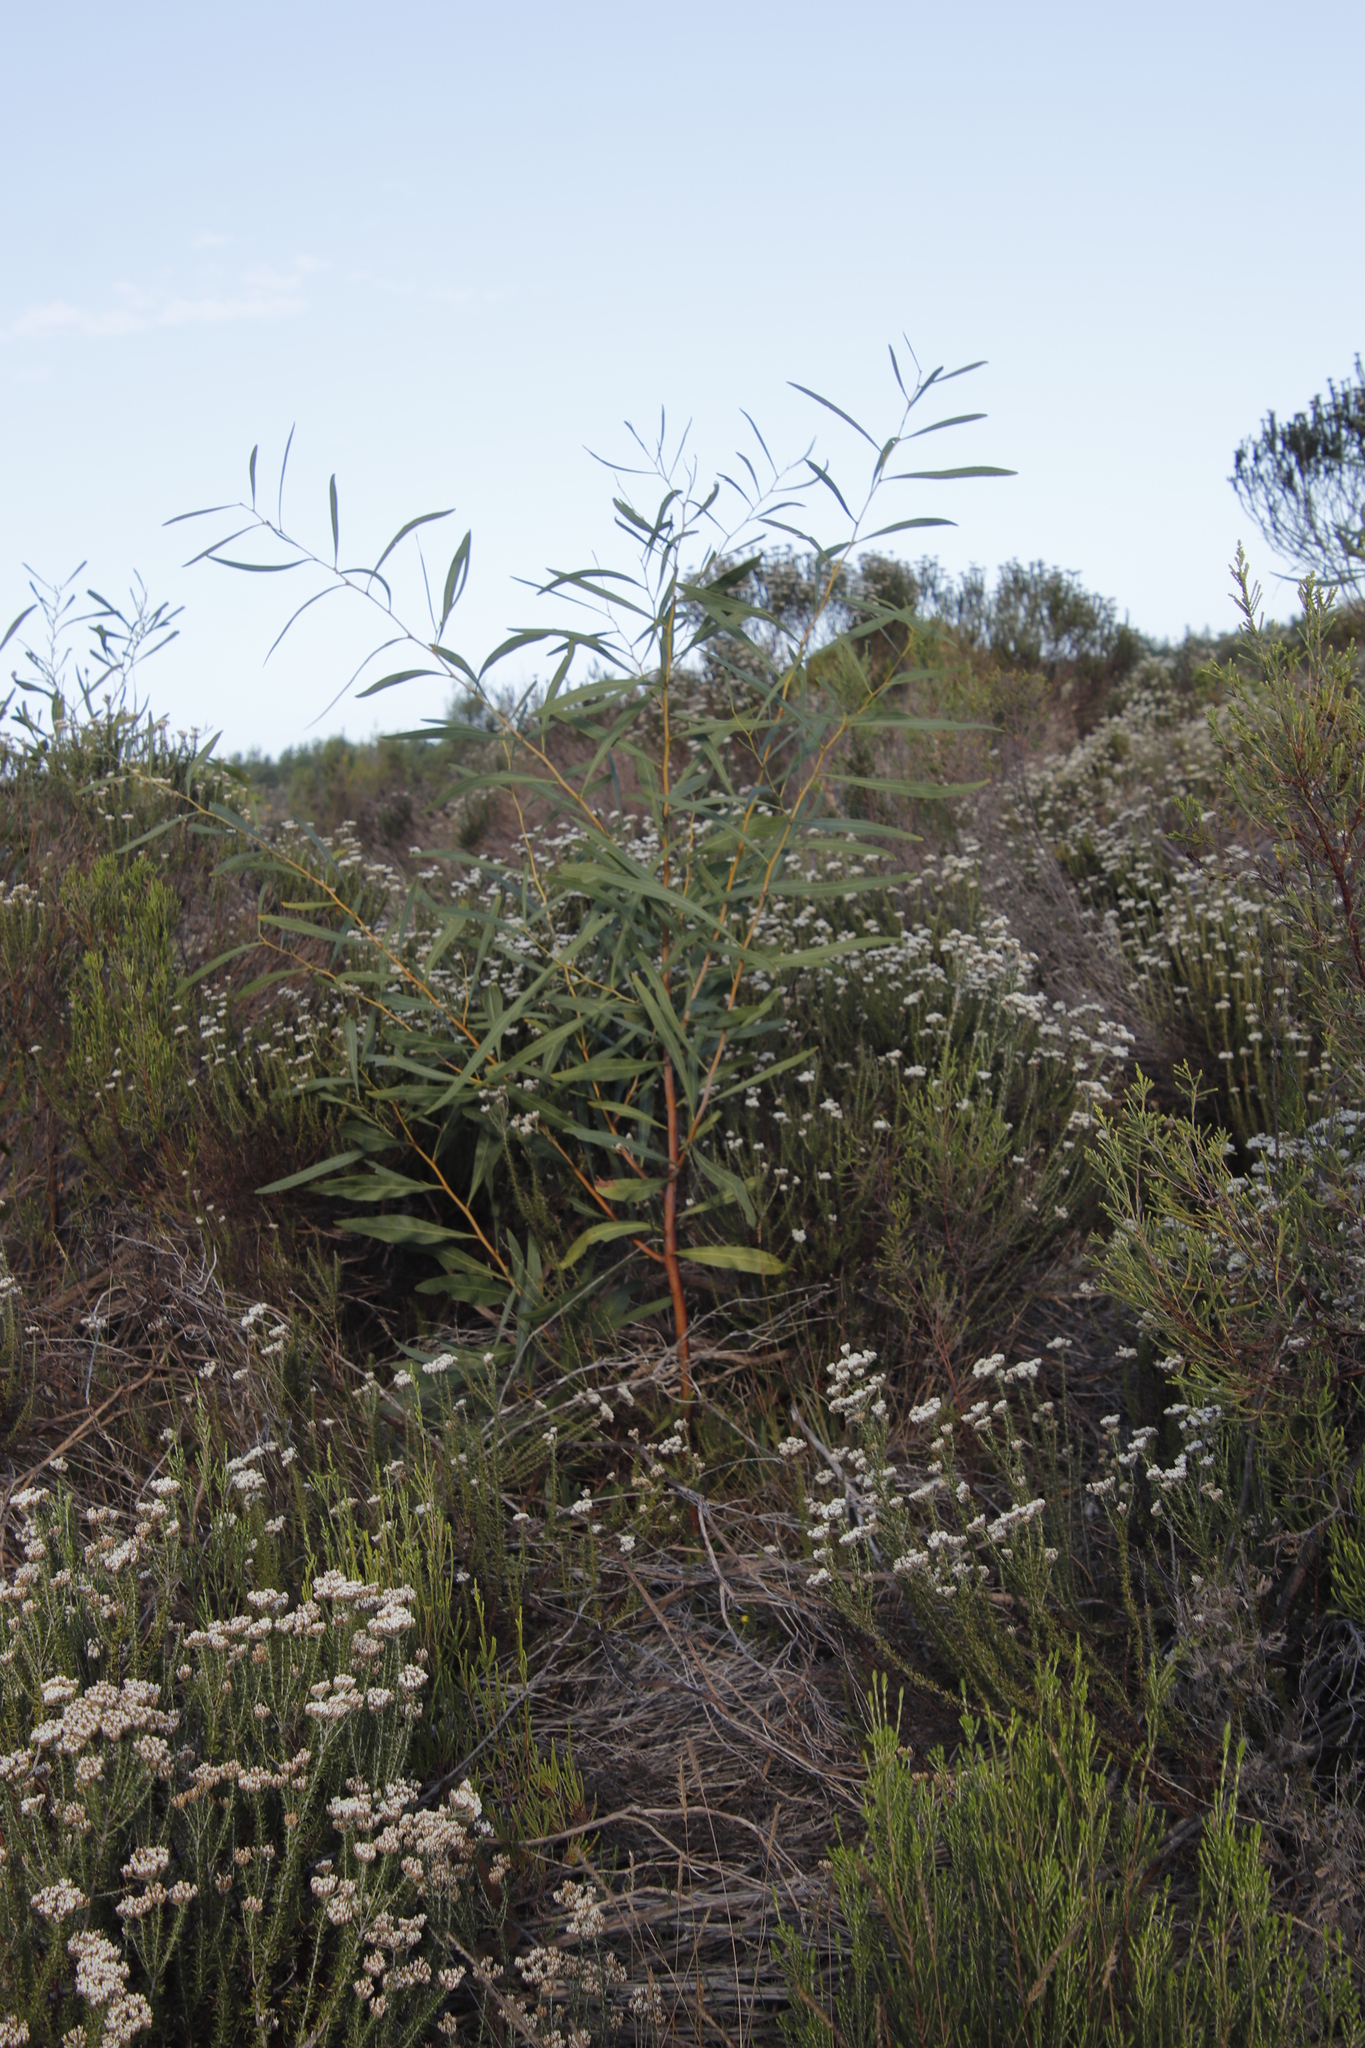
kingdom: Plantae
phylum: Tracheophyta
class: Magnoliopsida
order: Fabales
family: Fabaceae
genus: Acacia
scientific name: Acacia saligna
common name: Orange wattle
